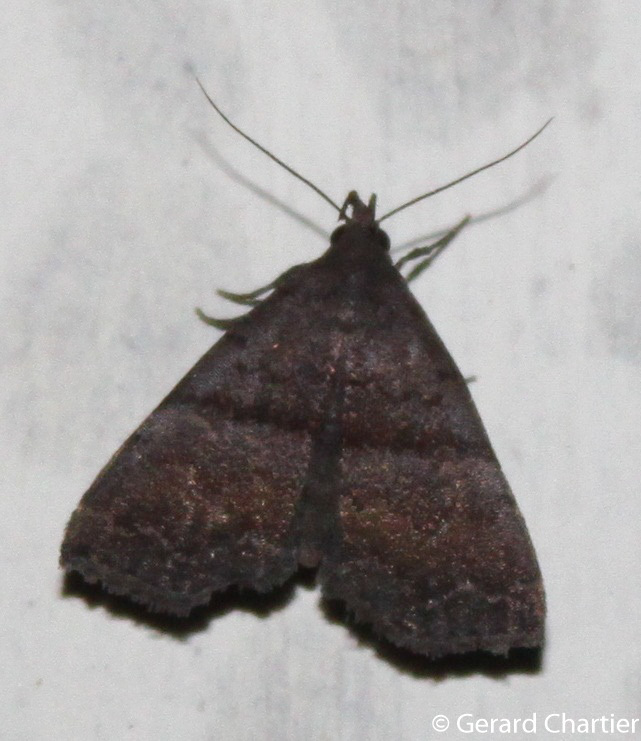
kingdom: Animalia
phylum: Arthropoda
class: Insecta
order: Lepidoptera
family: Erebidae
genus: Polypogon
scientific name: Polypogon Hipoepa fractalis
